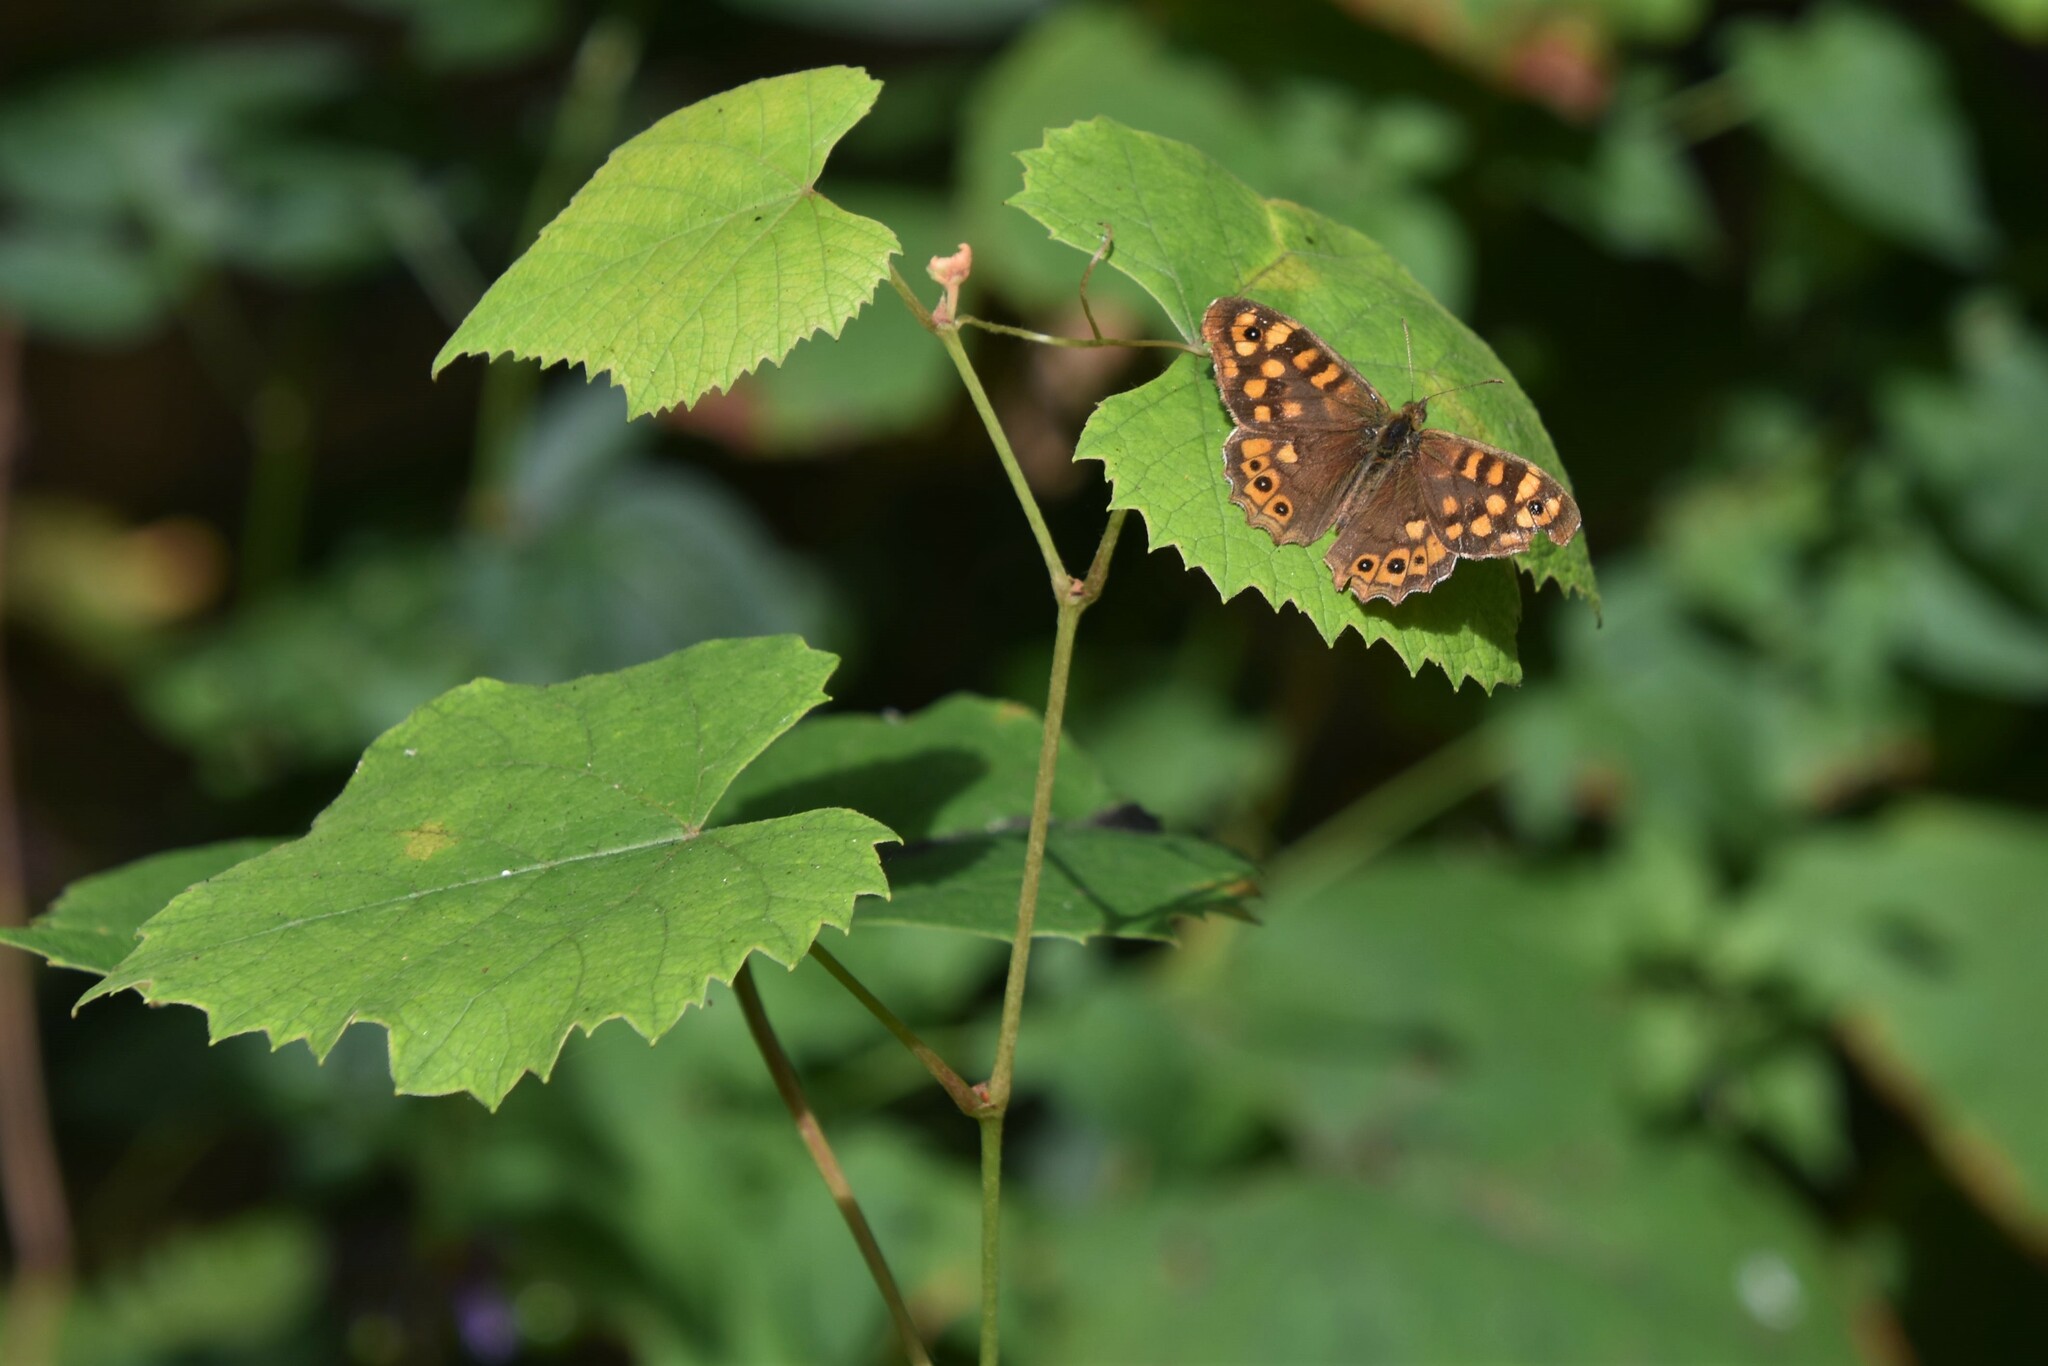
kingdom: Animalia
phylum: Arthropoda
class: Insecta
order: Lepidoptera
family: Nymphalidae
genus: Pararge
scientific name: Pararge aegeria
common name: Speckled wood
